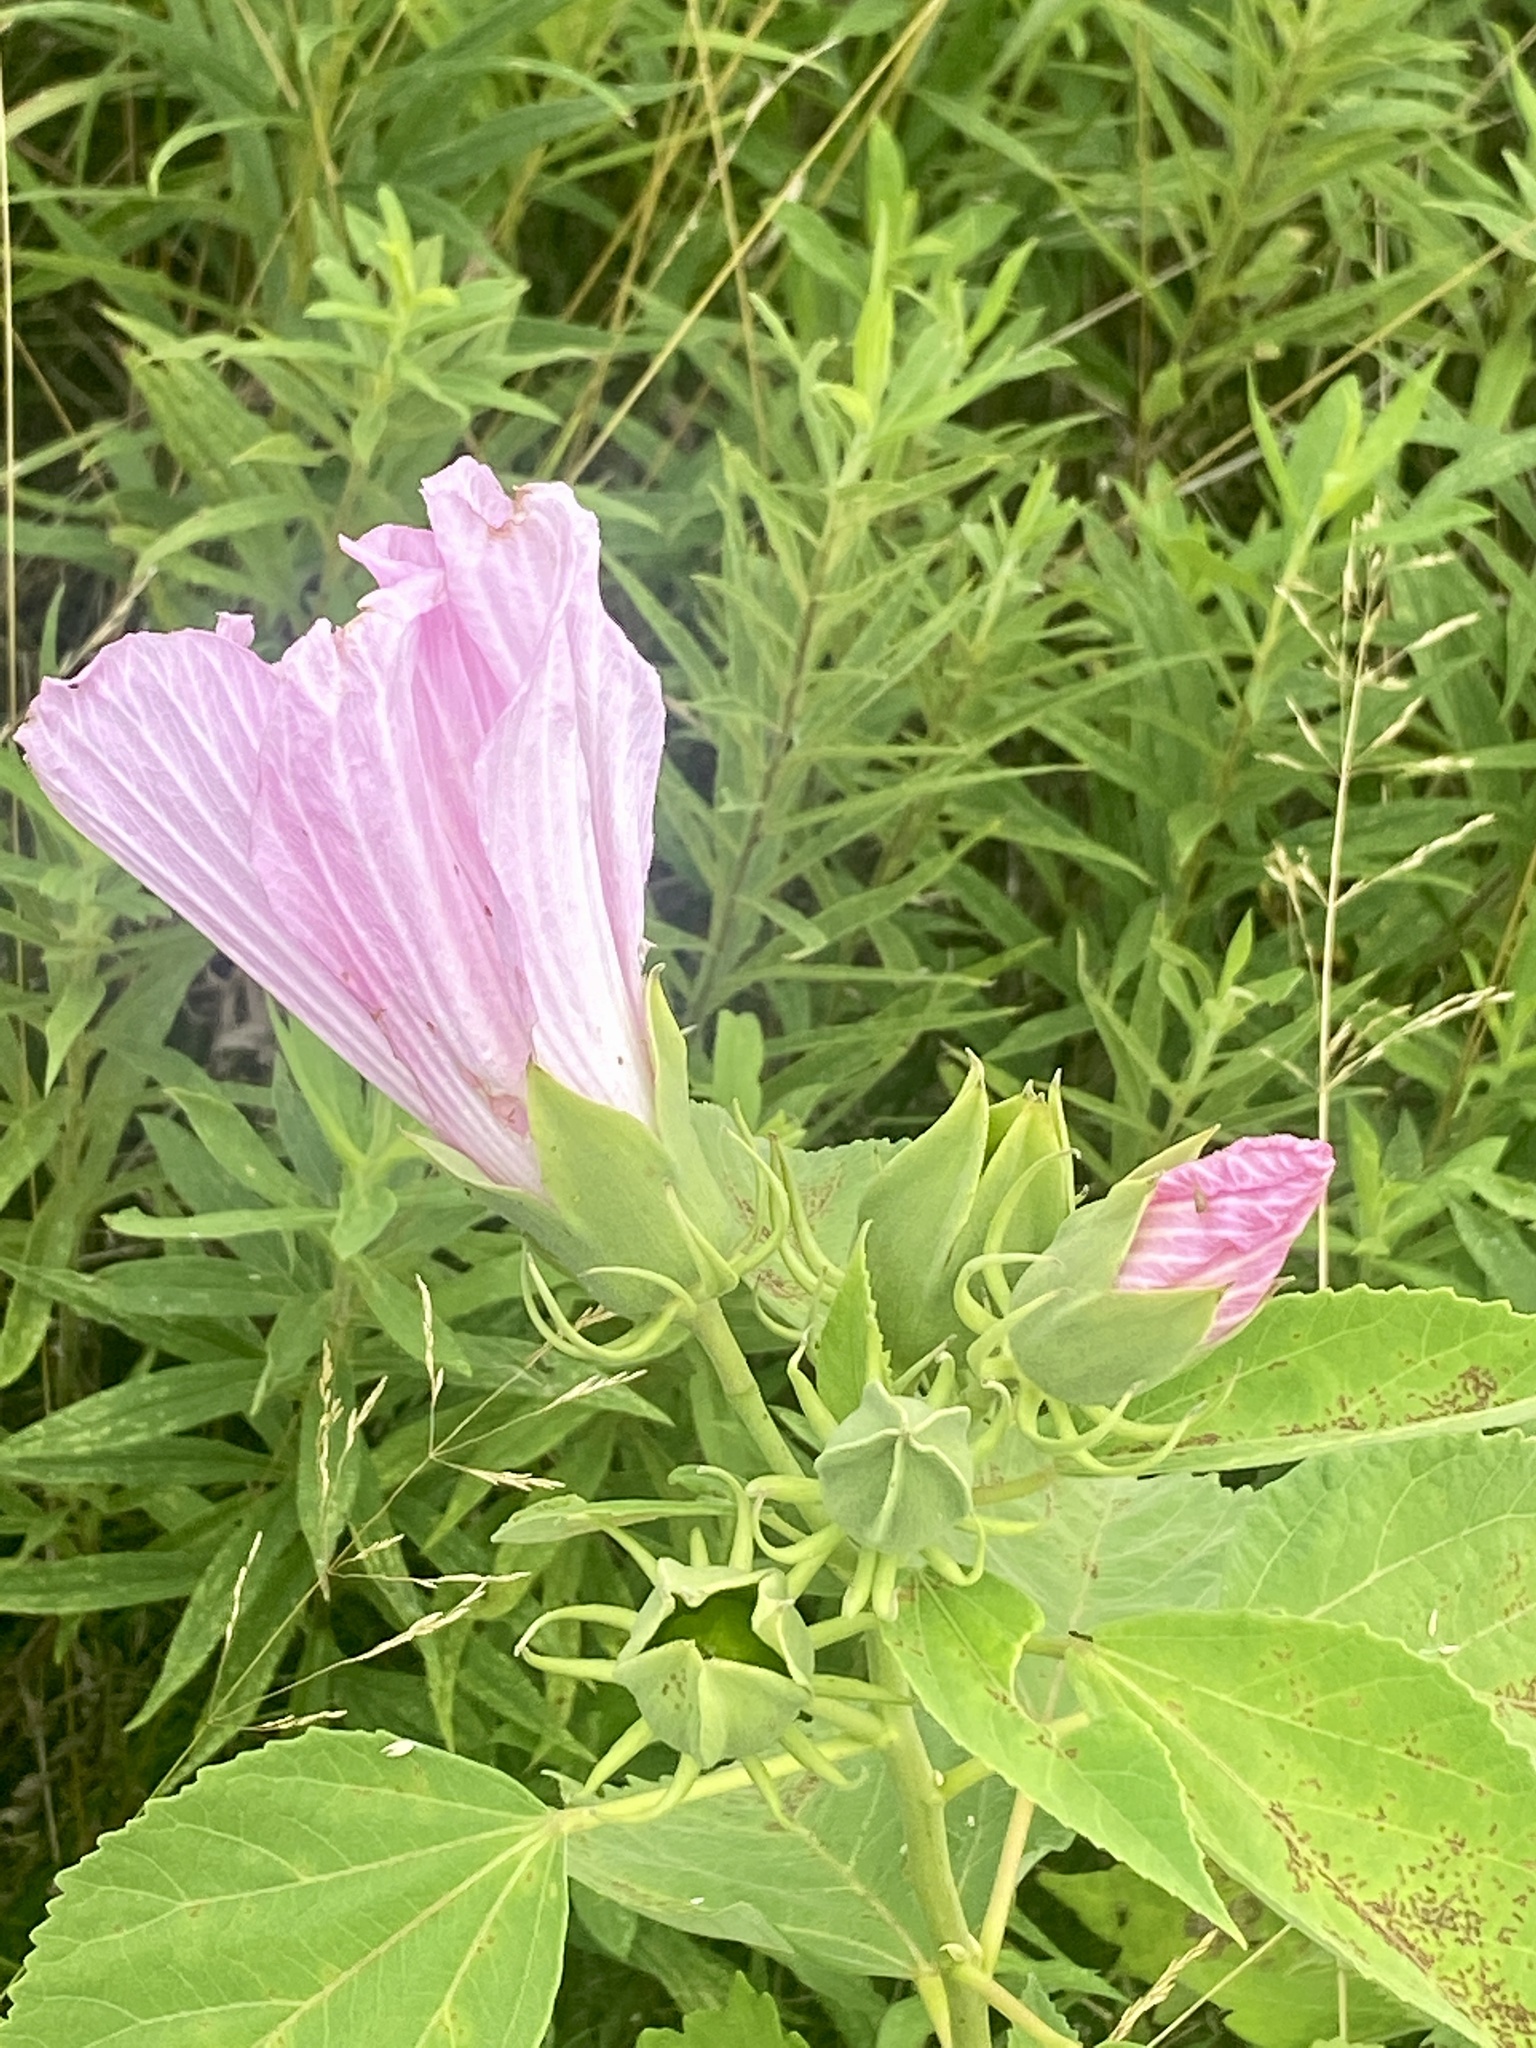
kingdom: Plantae
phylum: Tracheophyta
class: Magnoliopsida
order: Malvales
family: Malvaceae
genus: Hibiscus
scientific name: Hibiscus moscheutos
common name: Common rose-mallow
